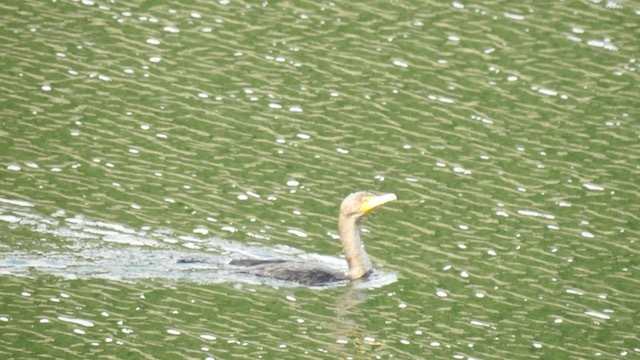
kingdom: Animalia
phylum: Chordata
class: Aves
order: Suliformes
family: Phalacrocoracidae
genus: Phalacrocorax
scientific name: Phalacrocorax auritus
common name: Double-crested cormorant
